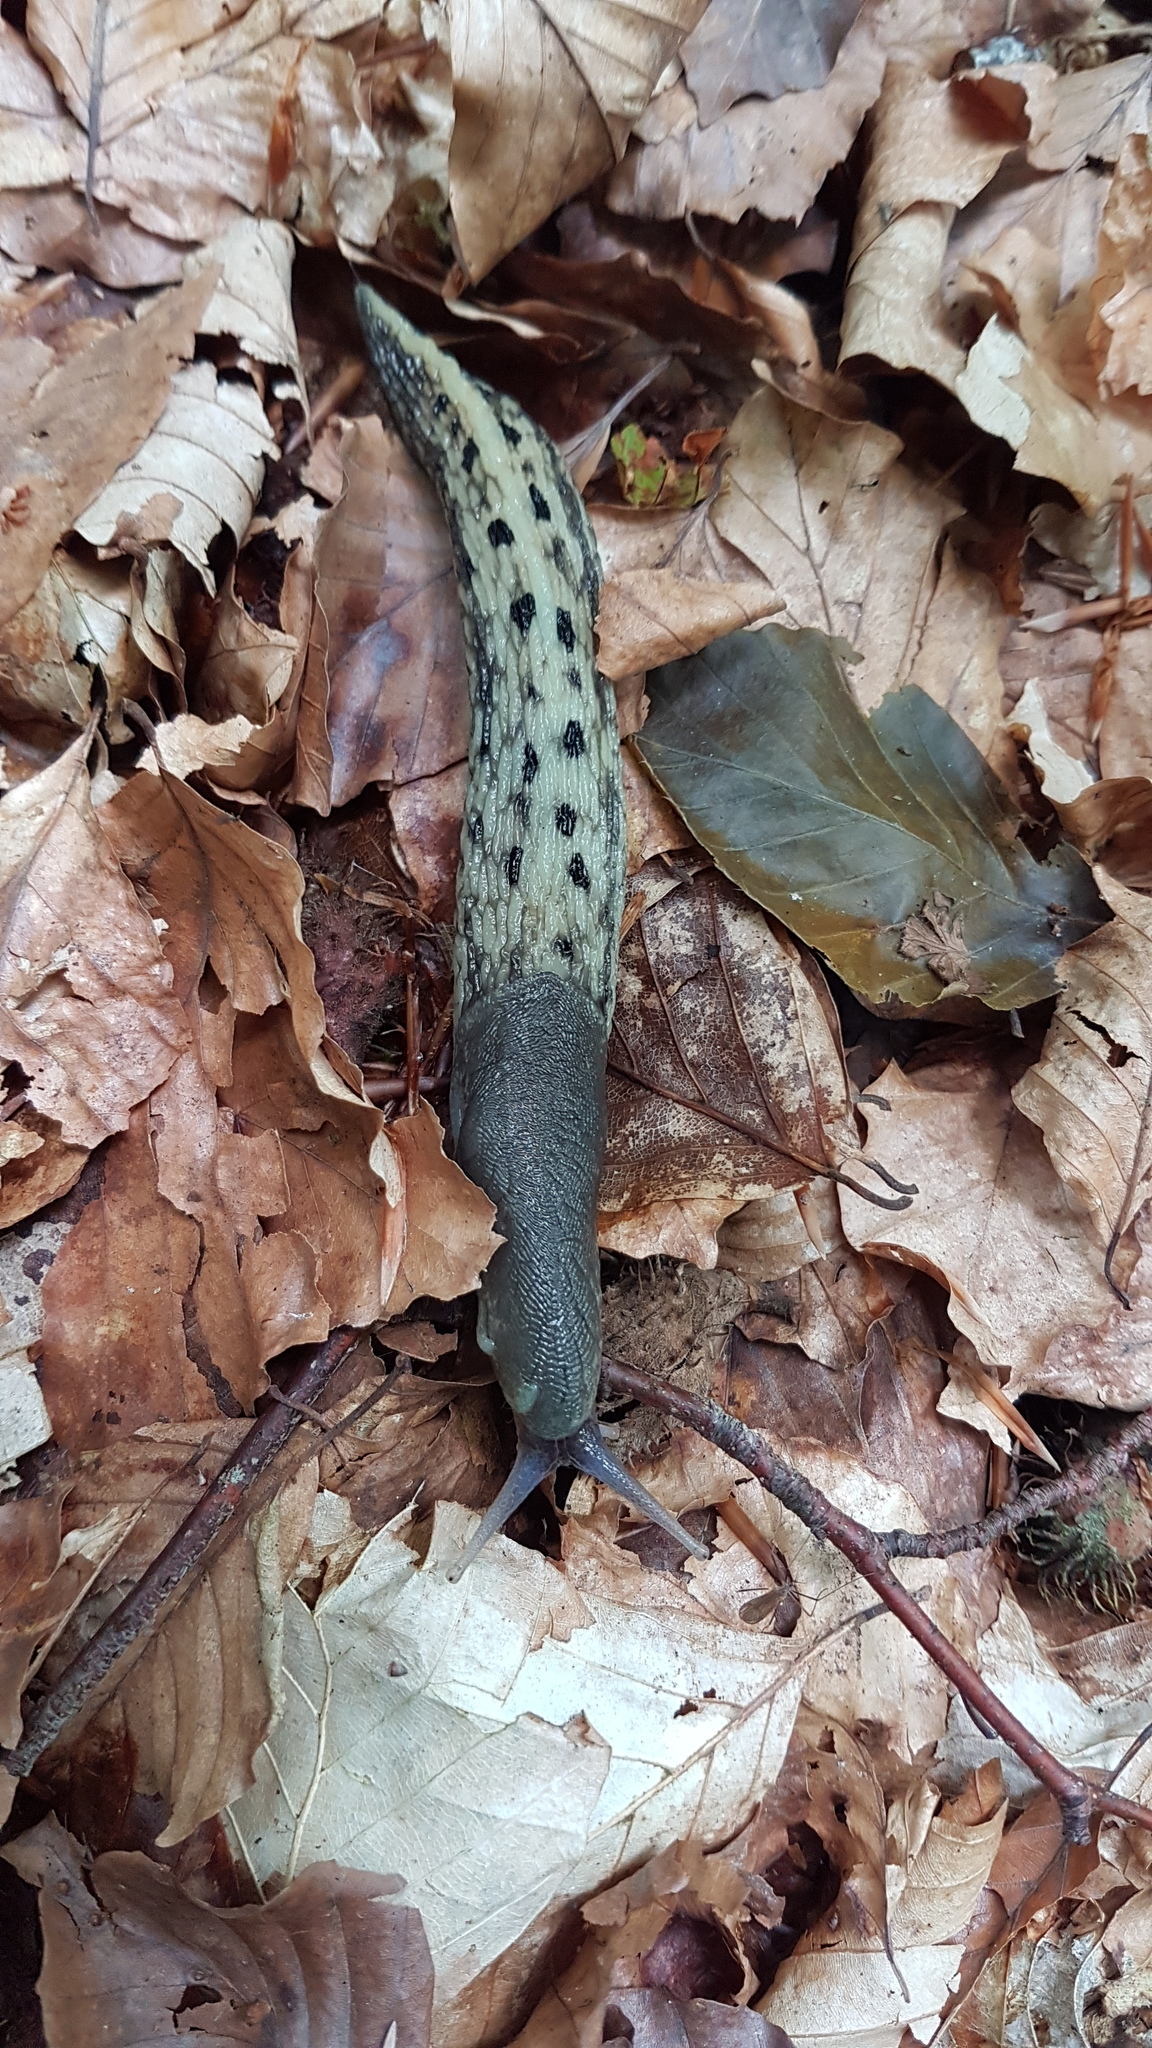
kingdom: Animalia
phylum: Mollusca
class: Gastropoda
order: Stylommatophora
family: Limacidae
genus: Limax
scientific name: Limax cinereoniger
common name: Ash-black slug
